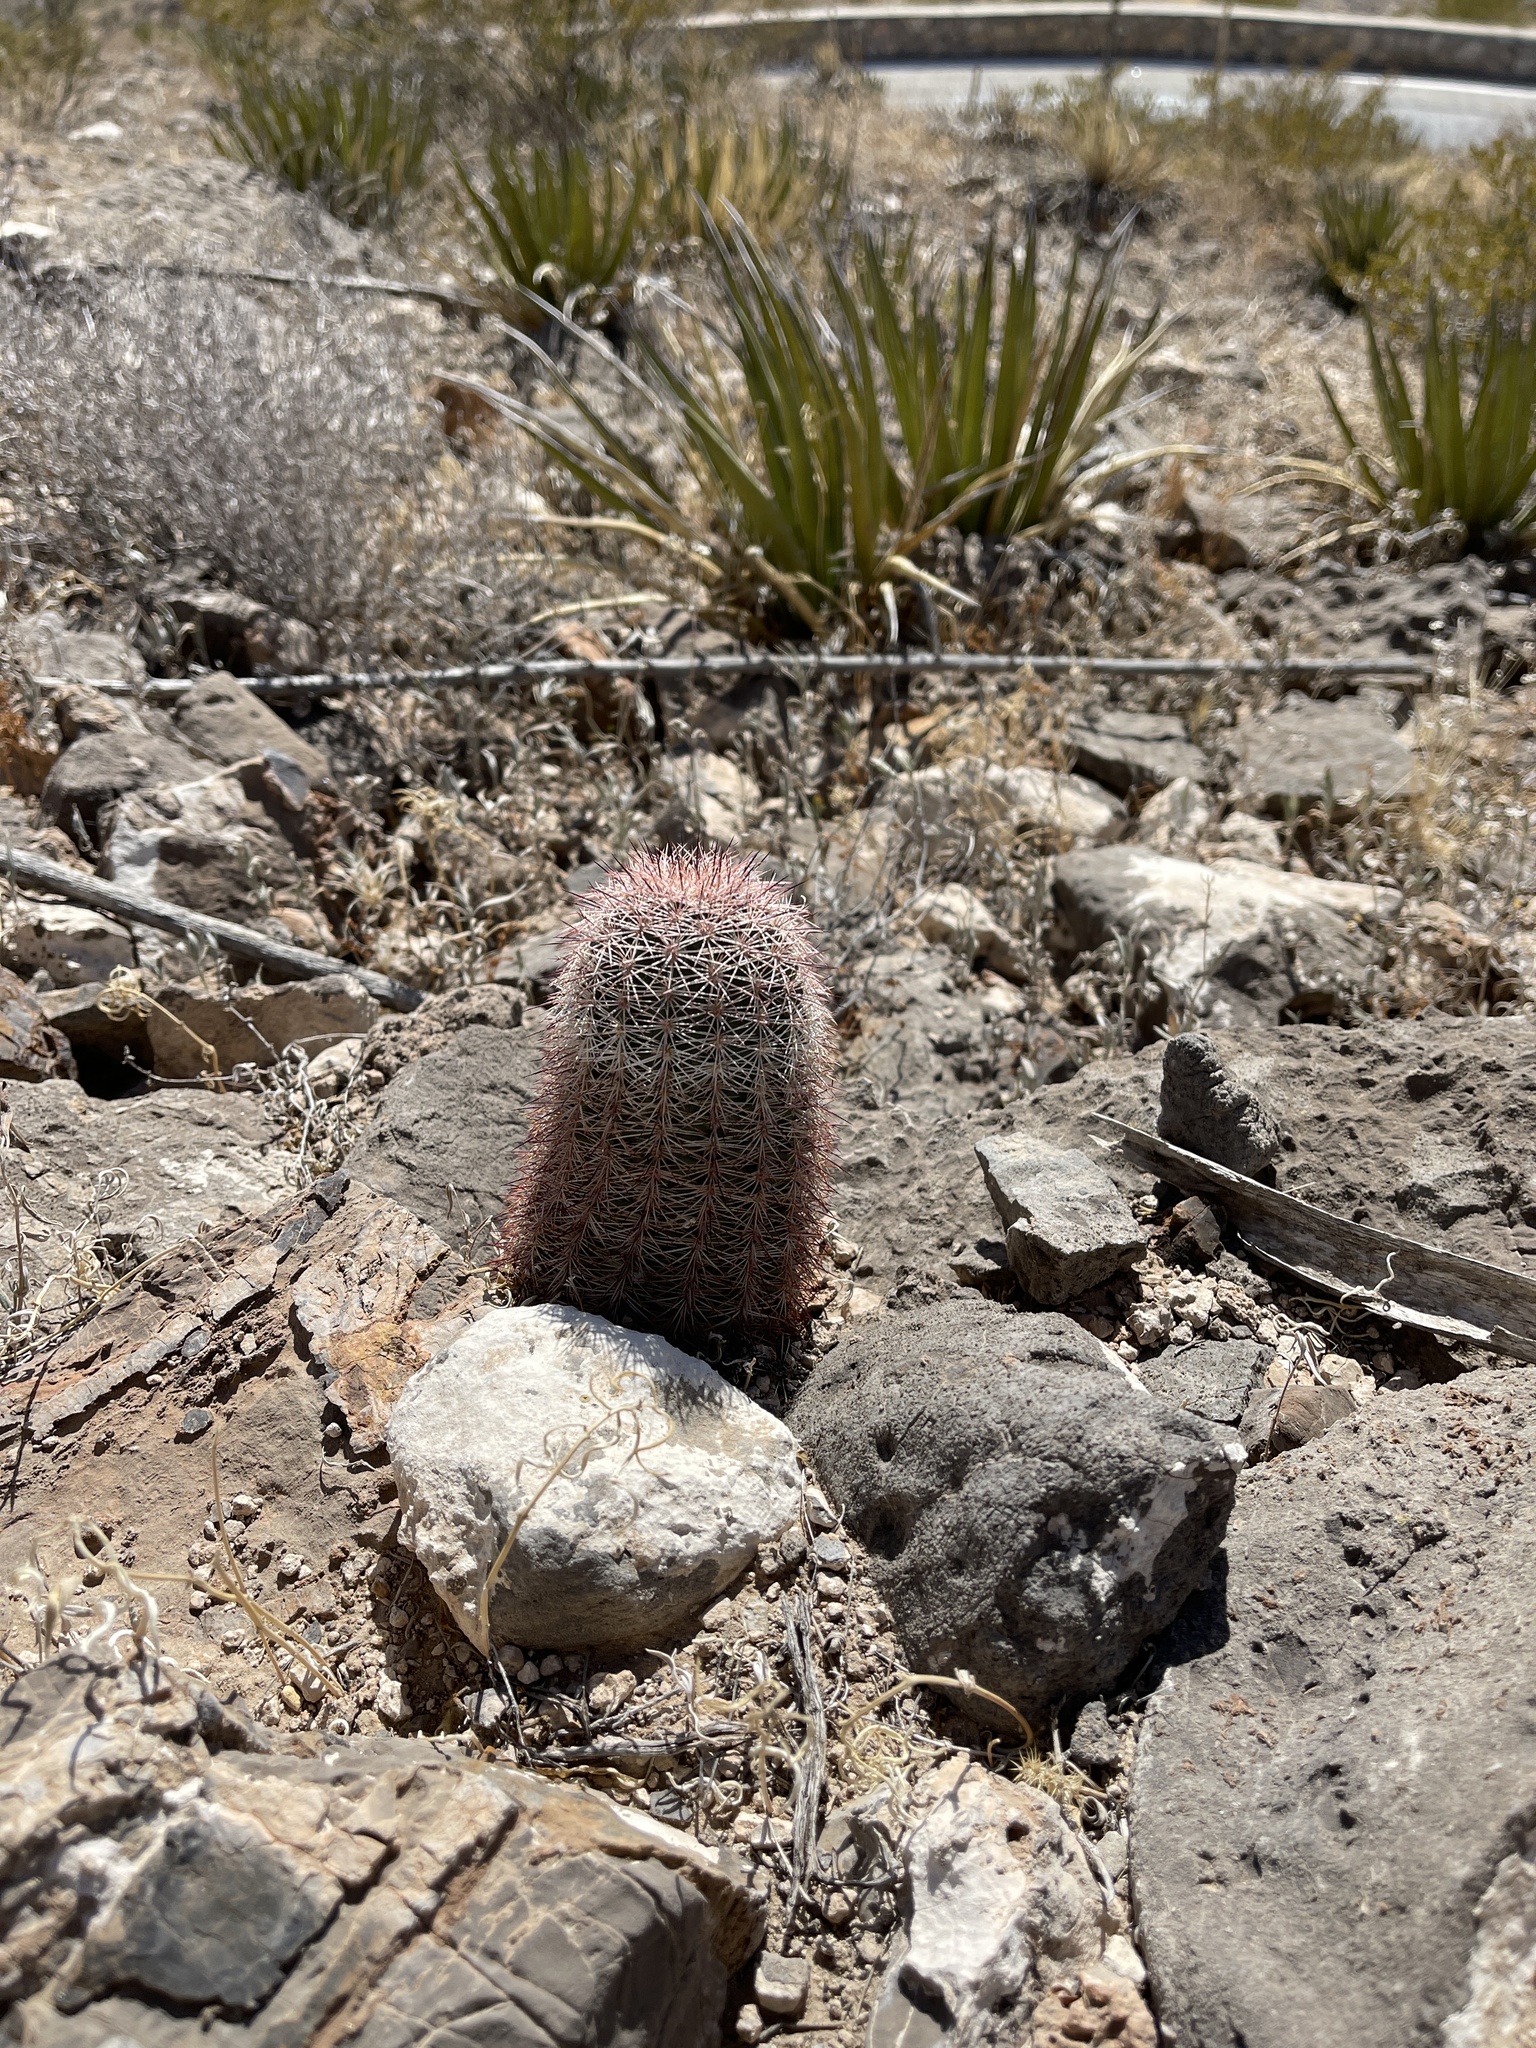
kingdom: Plantae
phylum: Tracheophyta
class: Magnoliopsida
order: Caryophyllales
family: Cactaceae
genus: Echinocereus
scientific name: Echinocereus dasyacanthus
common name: Spiny hedgehog cactus
